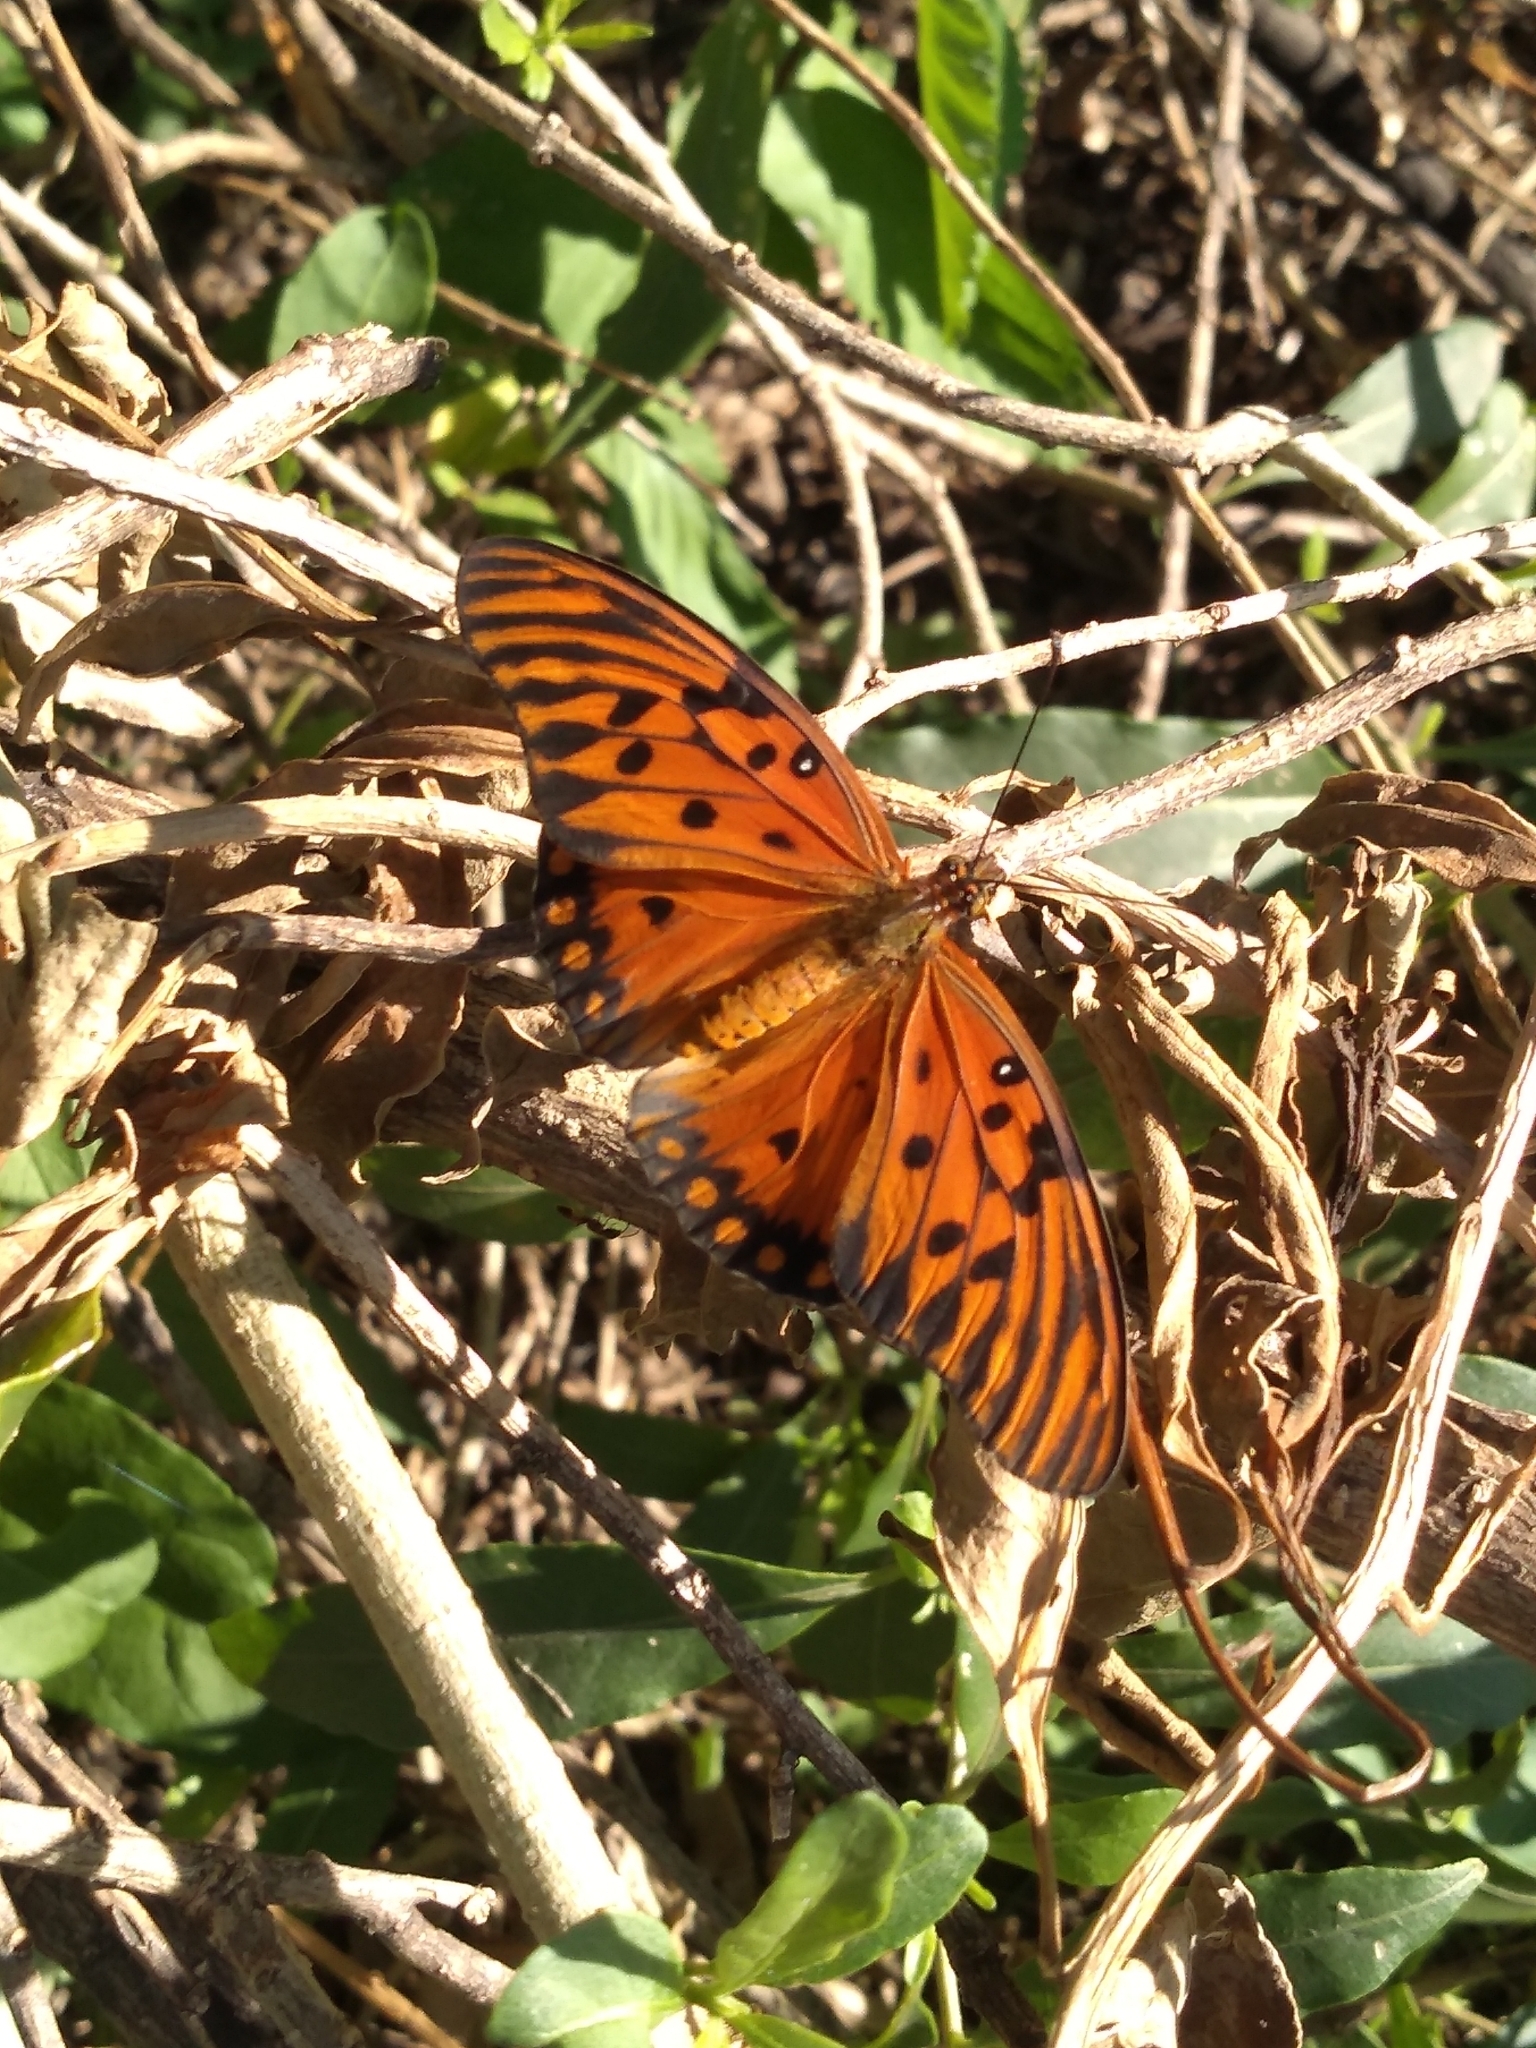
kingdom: Animalia
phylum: Arthropoda
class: Insecta
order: Lepidoptera
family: Nymphalidae
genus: Dione
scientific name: Dione vanillae
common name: Gulf fritillary
